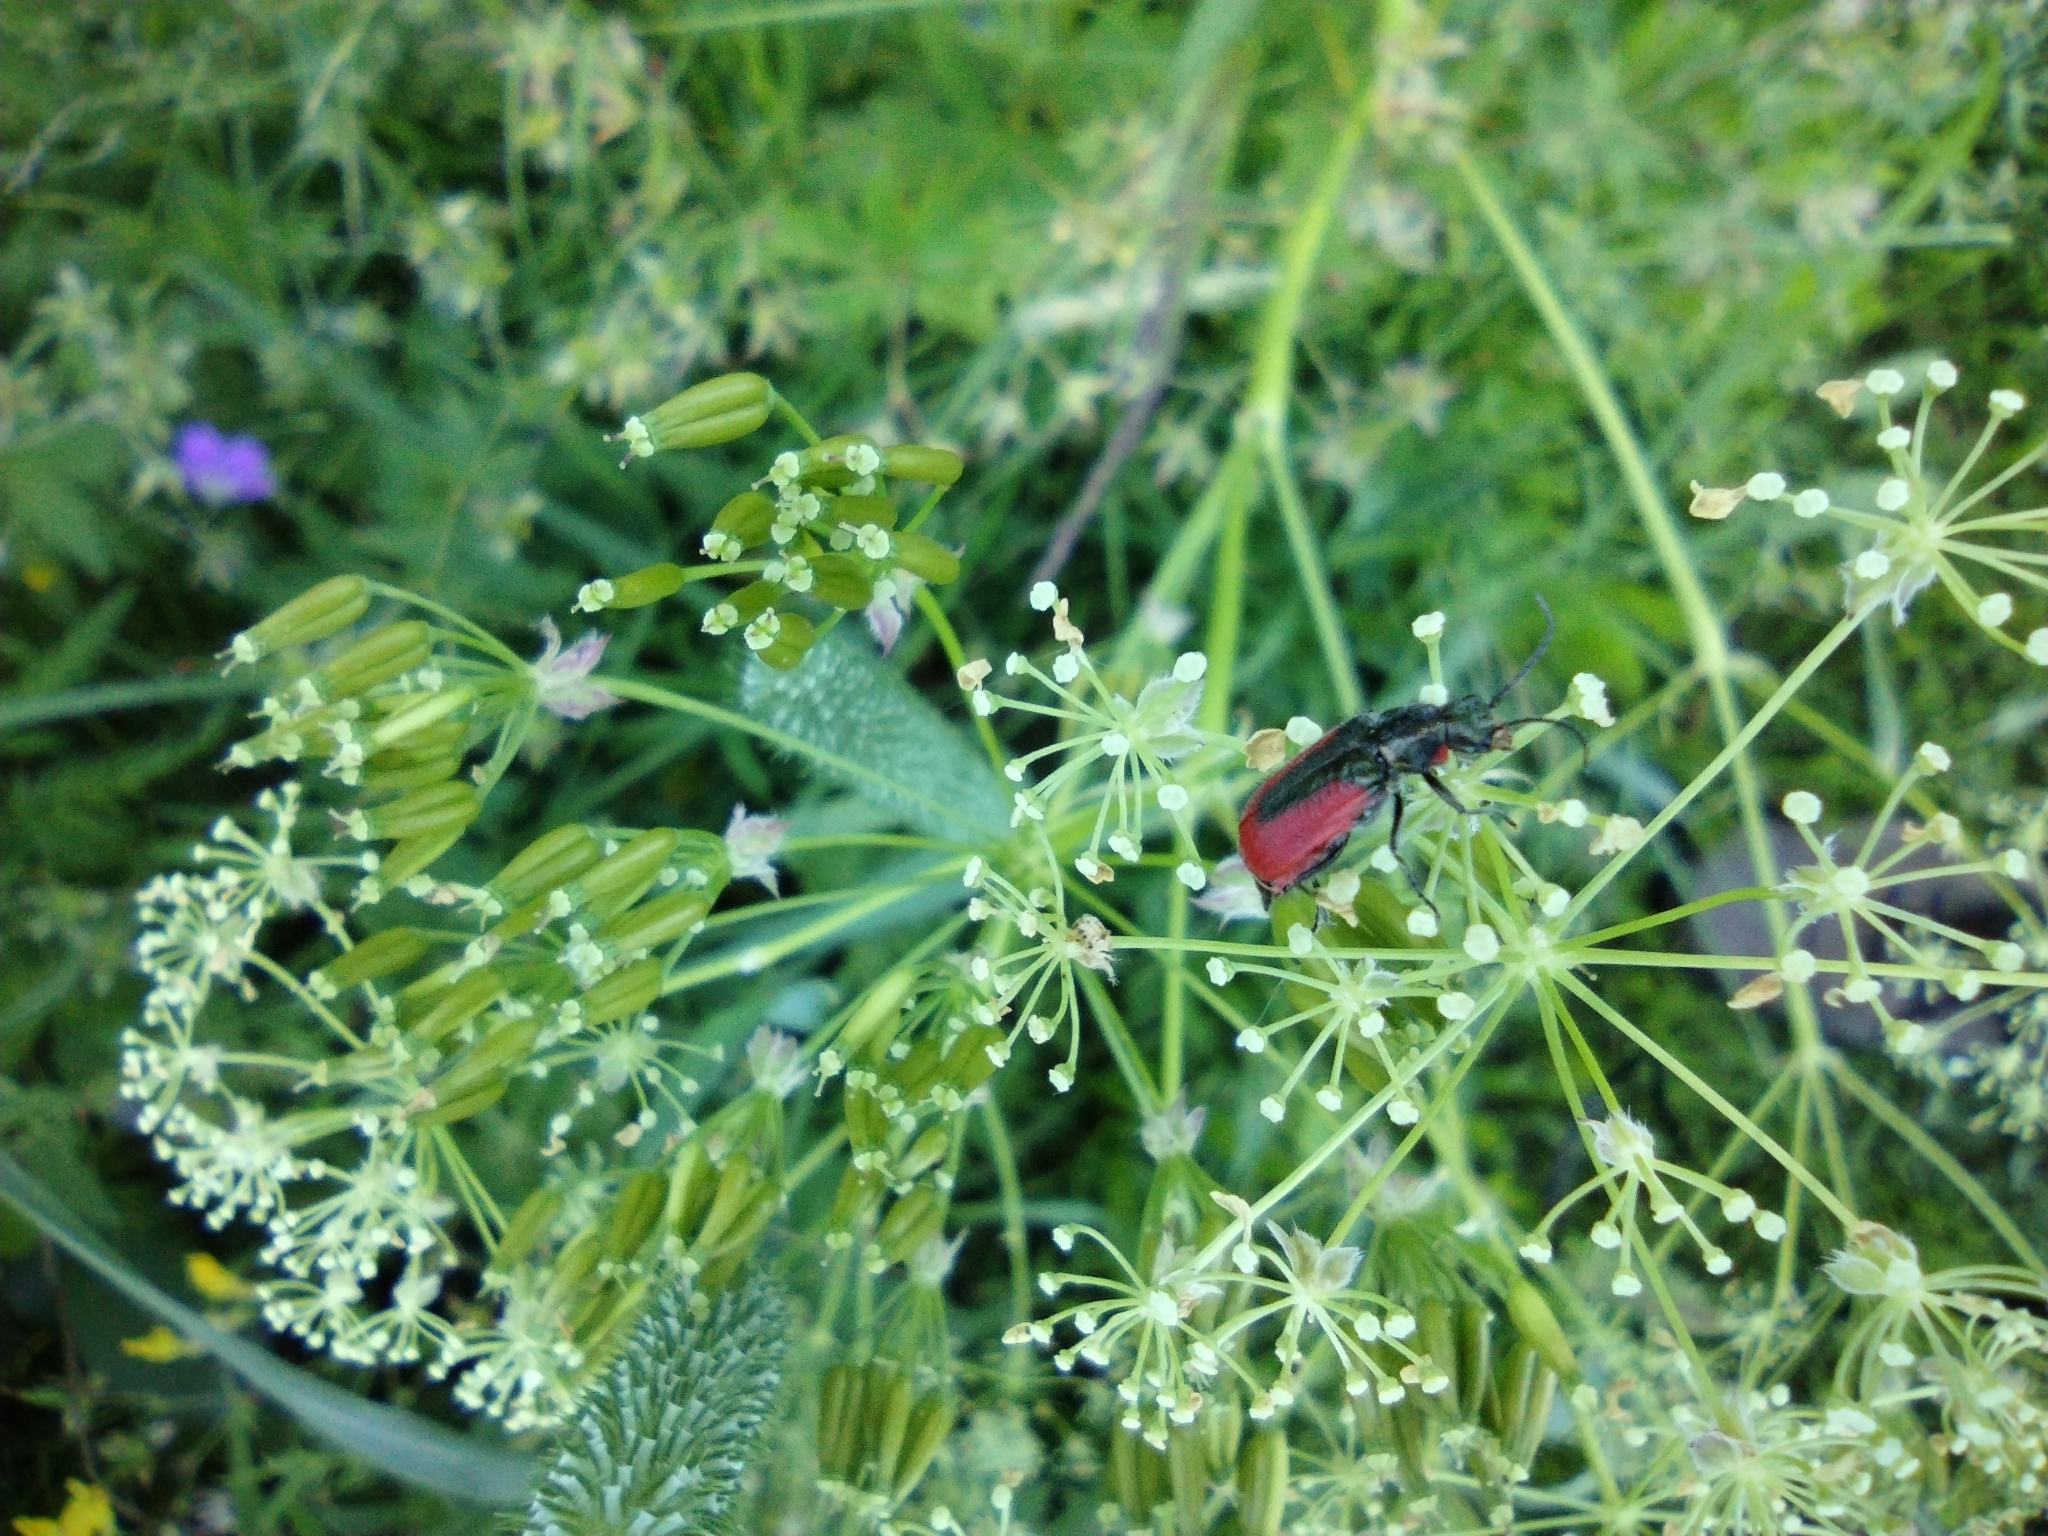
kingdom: Animalia
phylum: Arthropoda
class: Insecta
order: Coleoptera
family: Melyridae
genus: Malachius
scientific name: Malachius aeneus
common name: Scarlet malachite beetle
